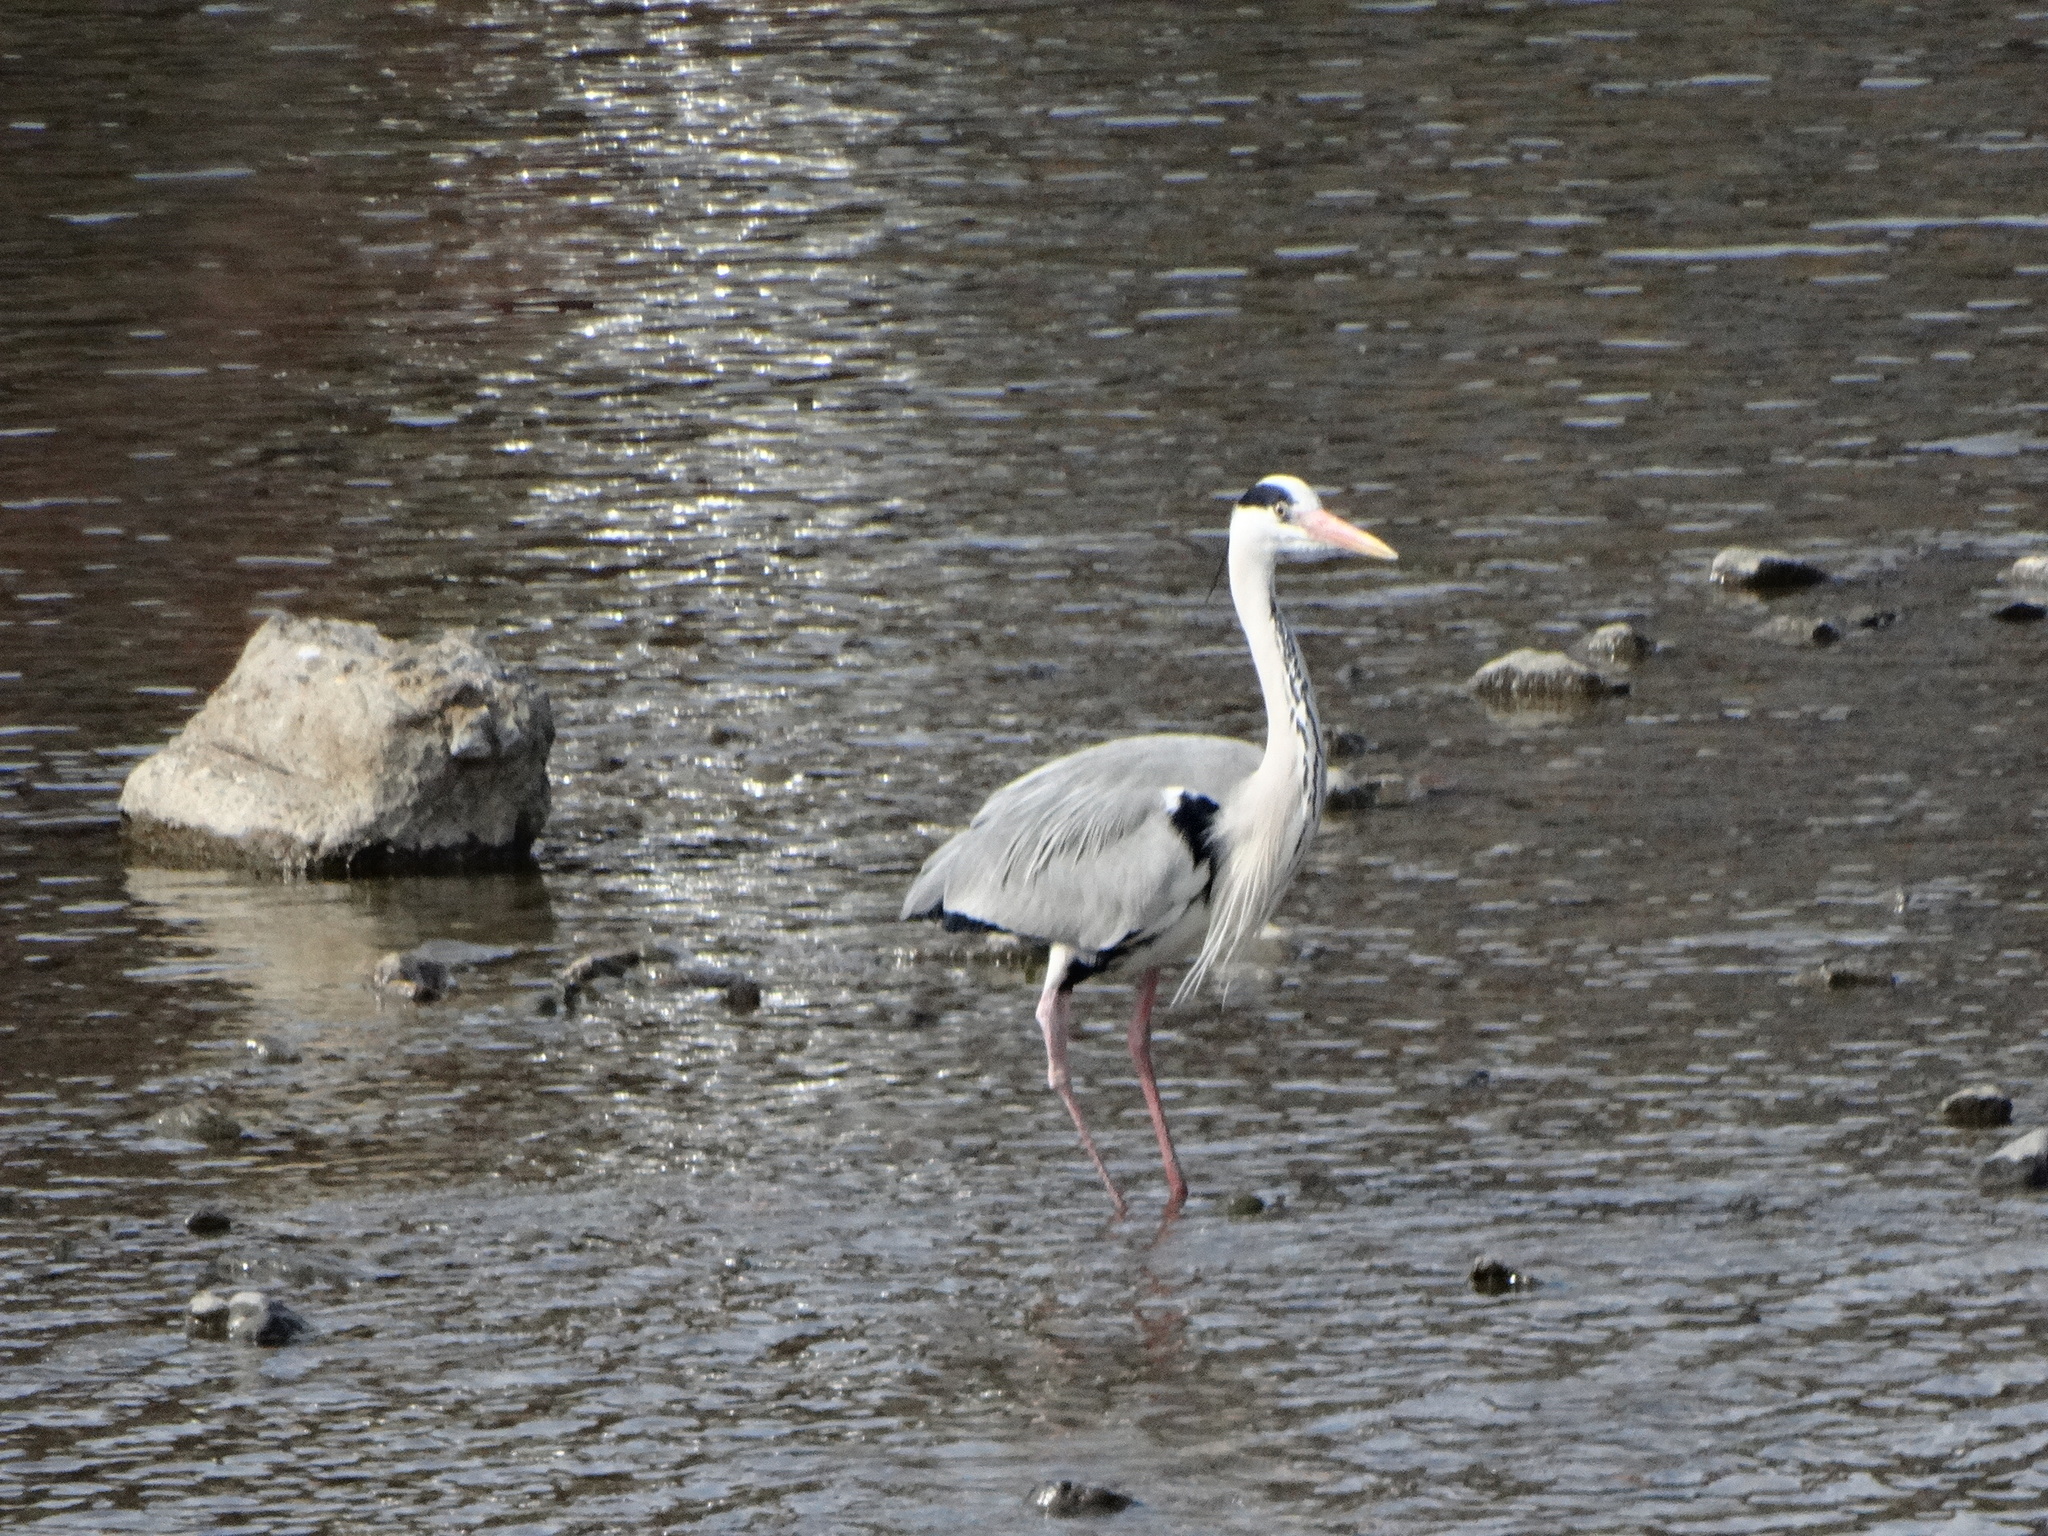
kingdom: Animalia
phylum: Chordata
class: Aves
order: Pelecaniformes
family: Ardeidae
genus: Ardea
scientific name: Ardea cinerea
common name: Grey heron
